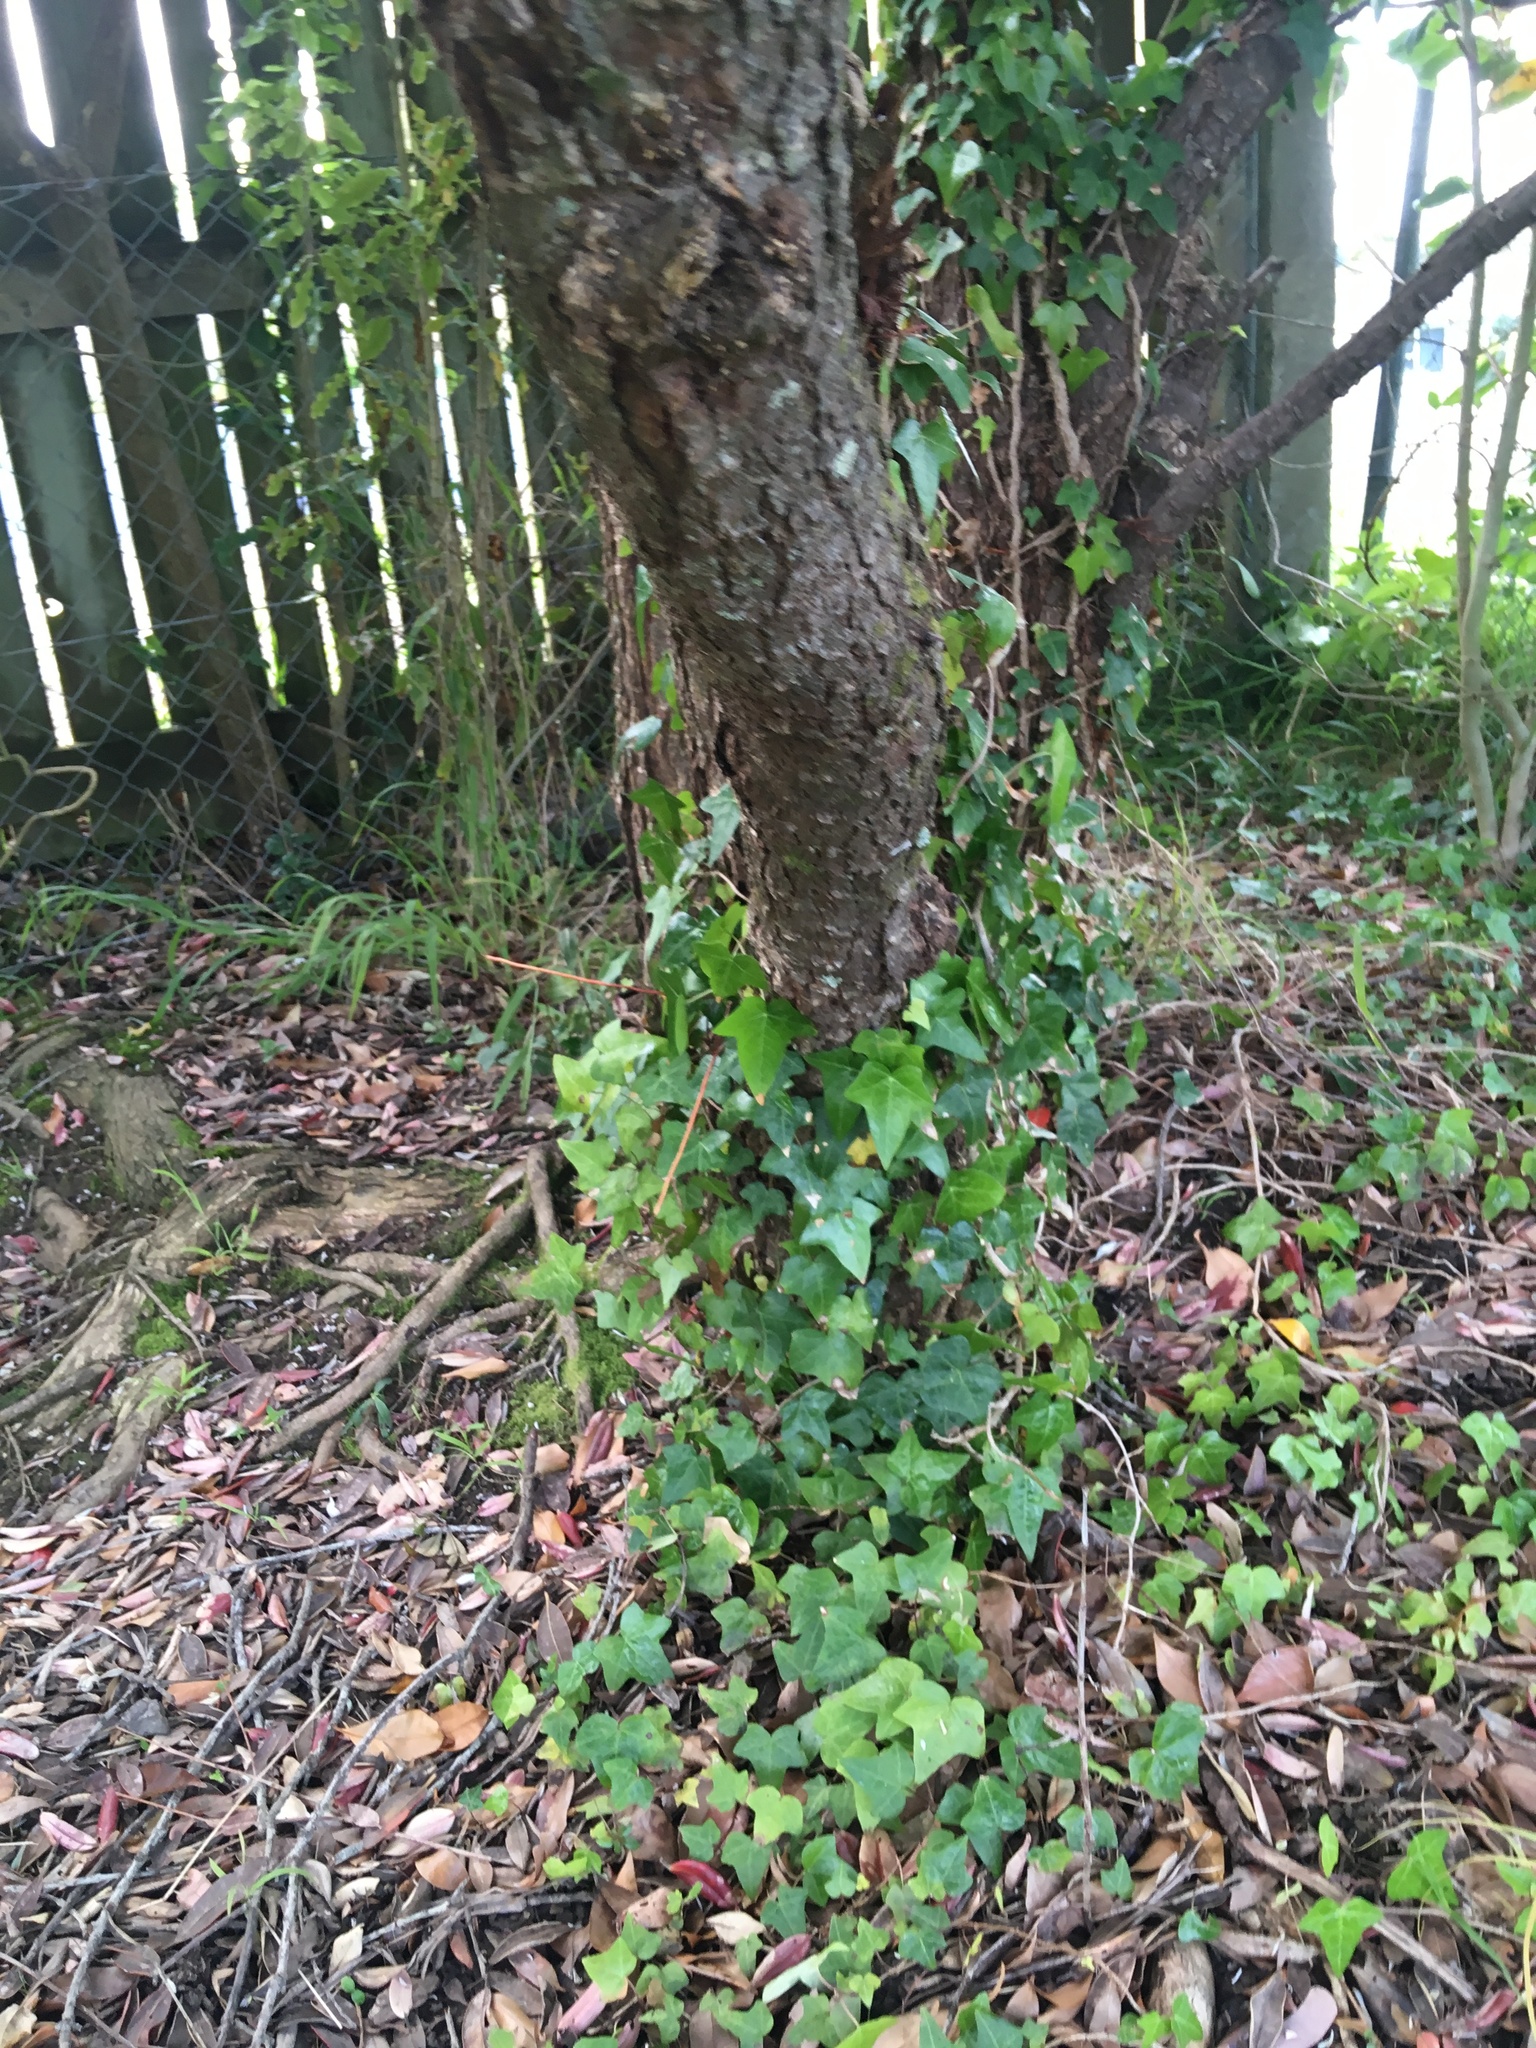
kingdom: Plantae
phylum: Tracheophyta
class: Magnoliopsida
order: Apiales
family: Araliaceae
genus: Hedera
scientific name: Hedera helix
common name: Ivy
